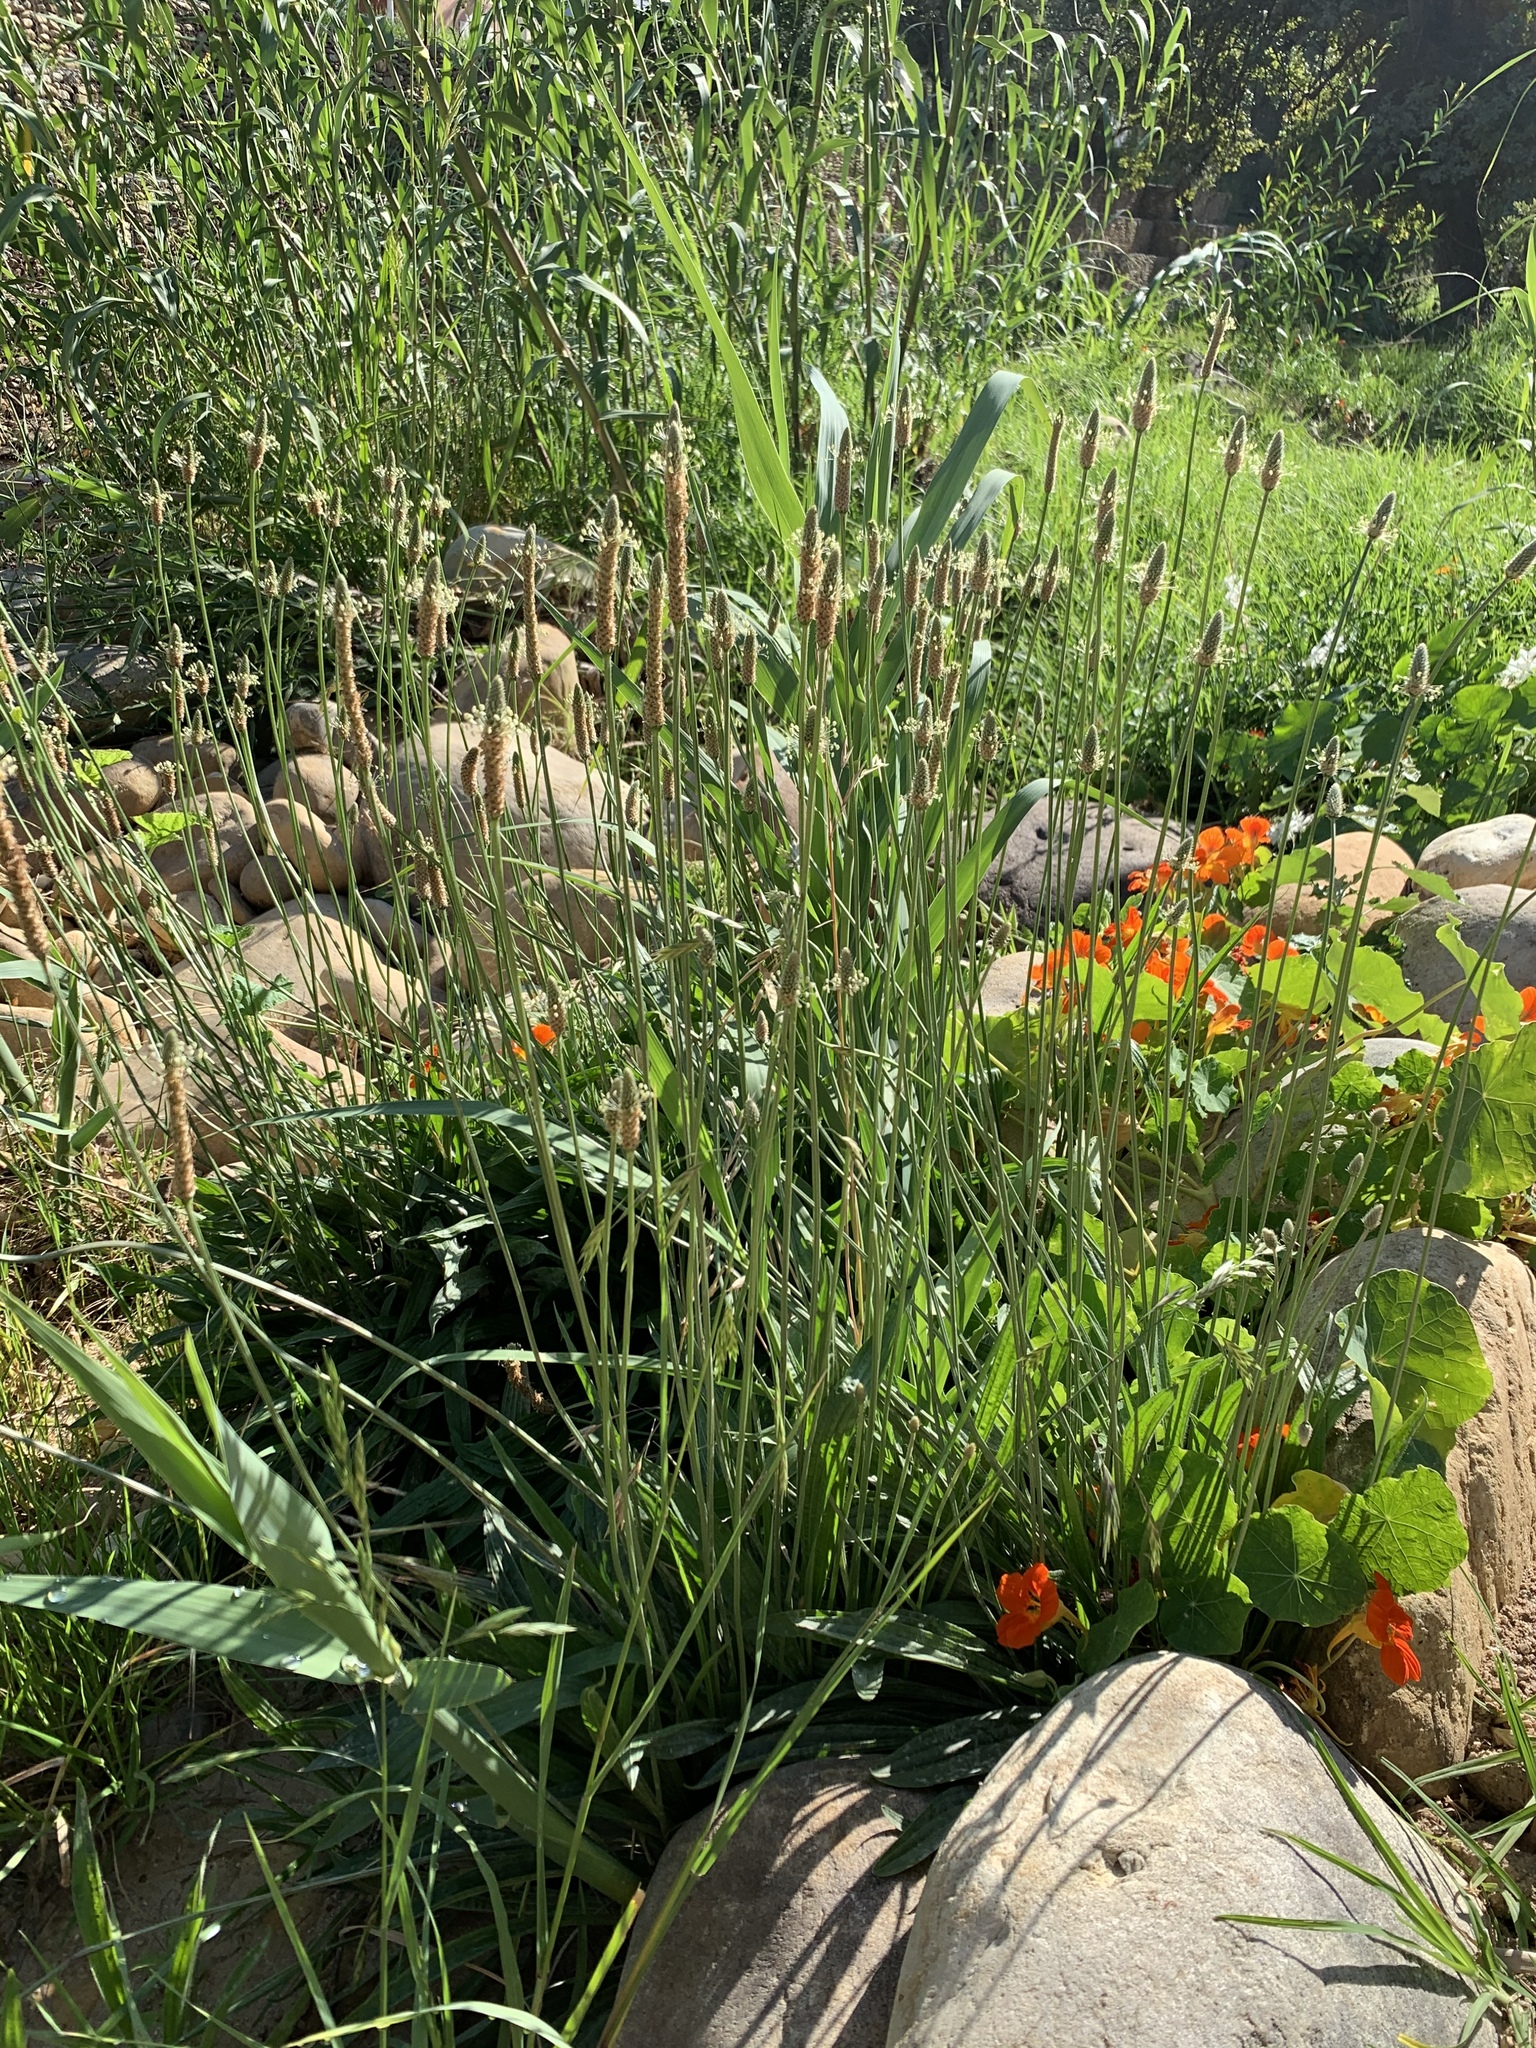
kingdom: Plantae
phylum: Tracheophyta
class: Magnoliopsida
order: Lamiales
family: Plantaginaceae
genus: Plantago
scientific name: Plantago lanceolata
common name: Ribwort plantain
